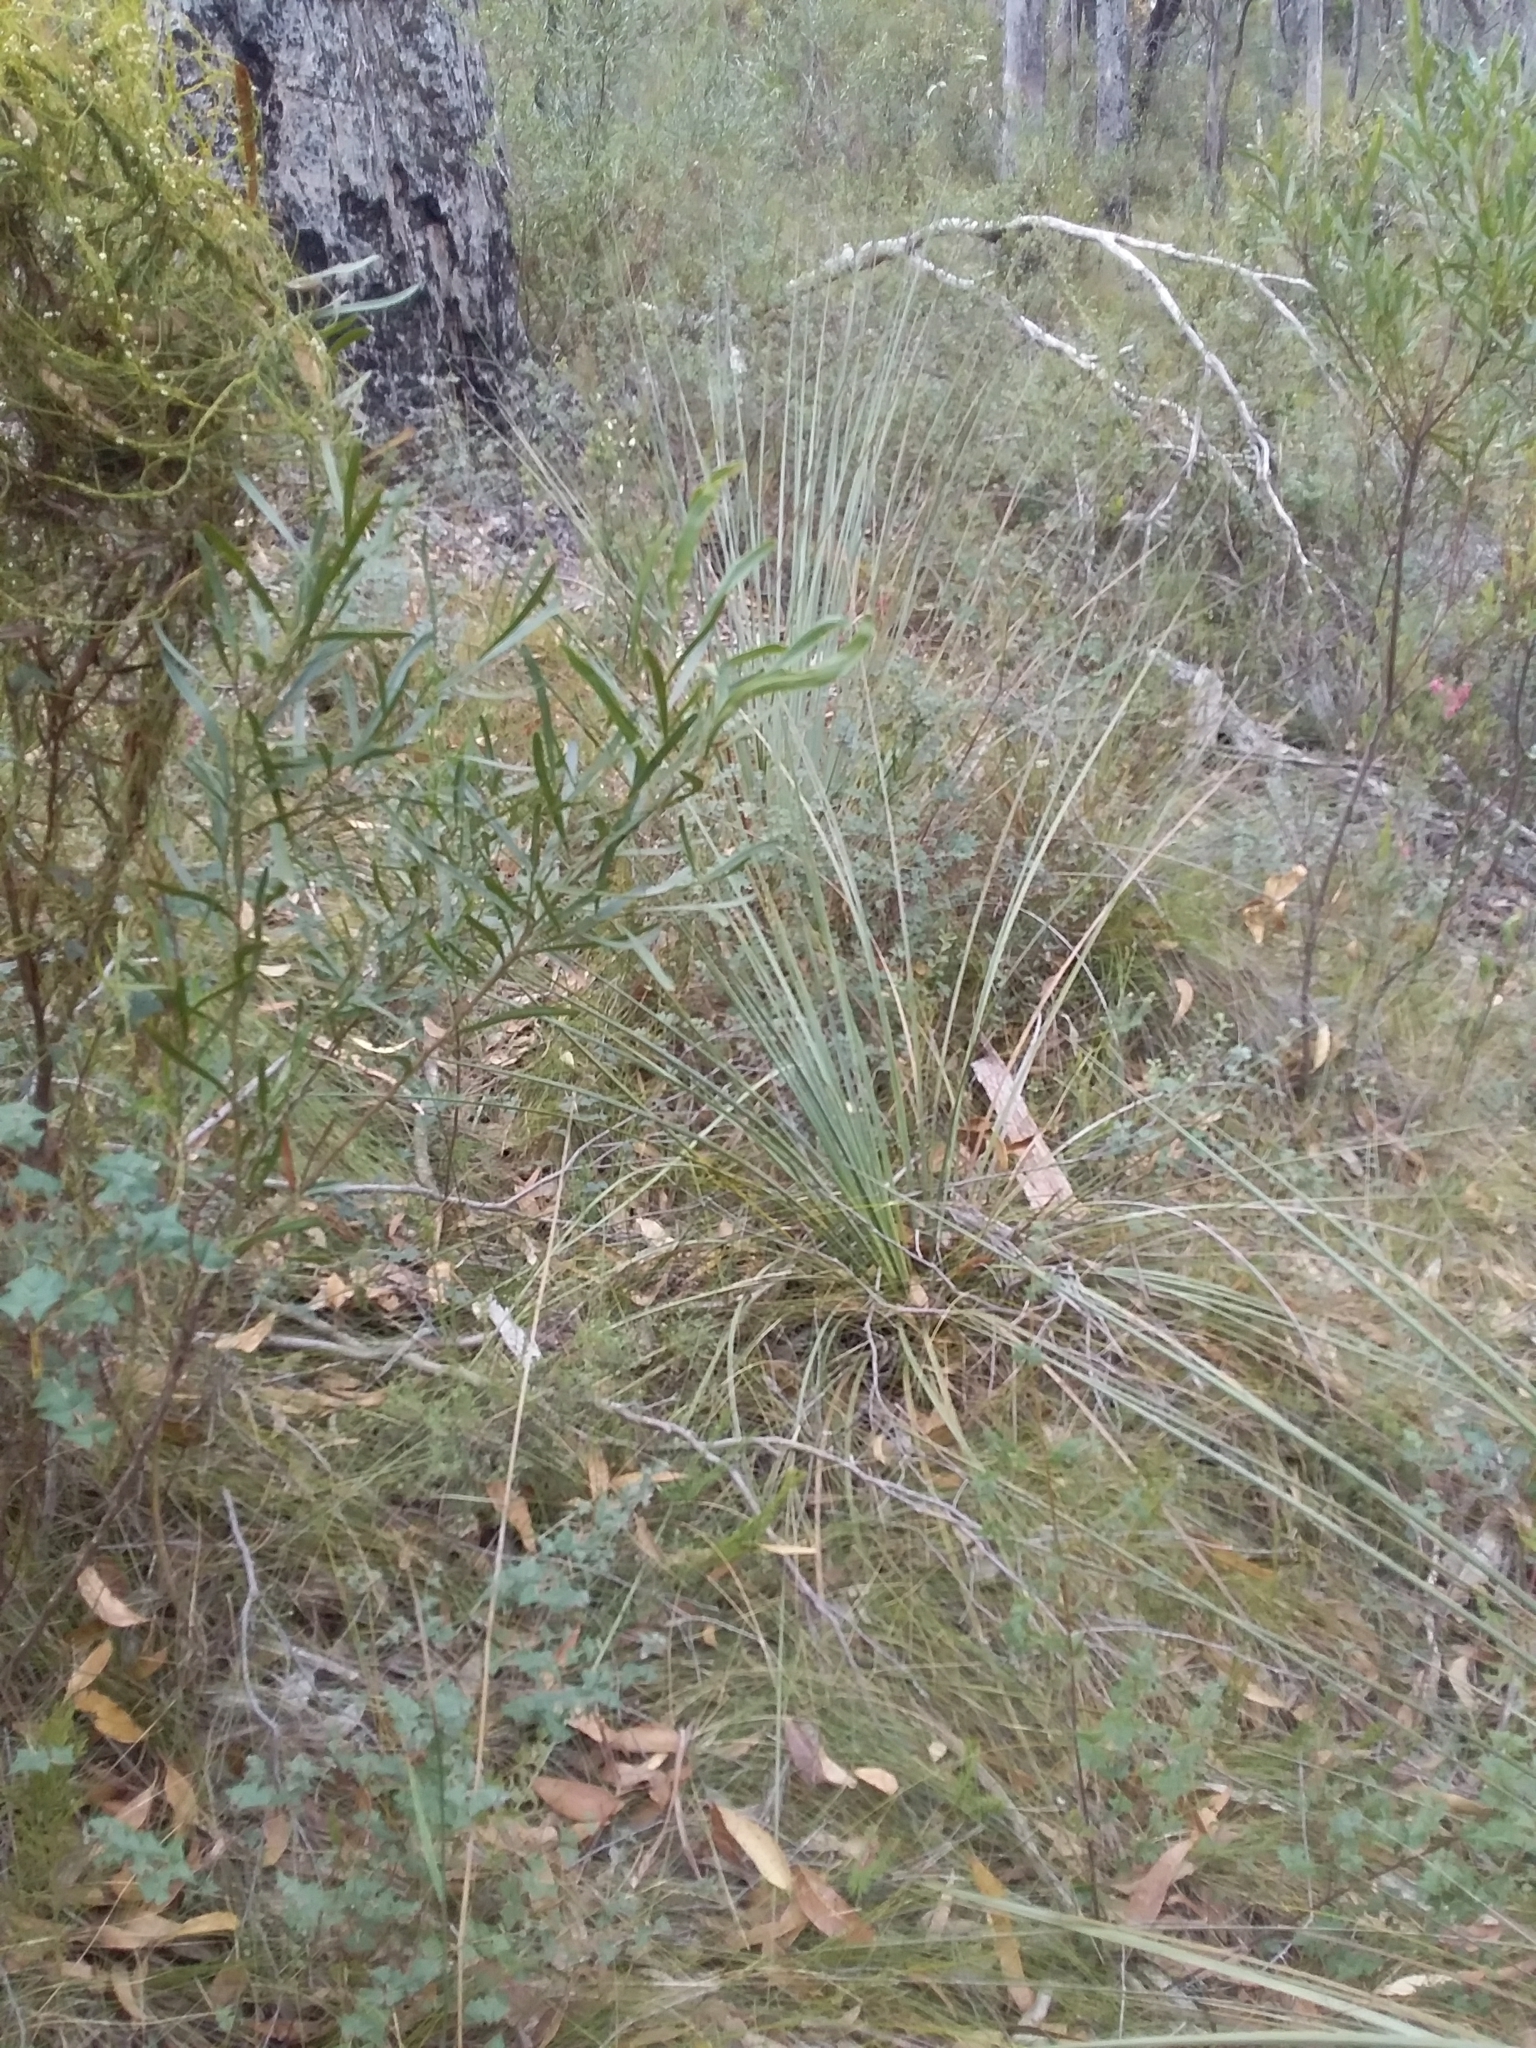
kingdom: Plantae
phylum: Tracheophyta
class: Liliopsida
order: Asparagales
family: Asphodelaceae
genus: Xanthorrhoea
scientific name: Xanthorrhoea semiplana
